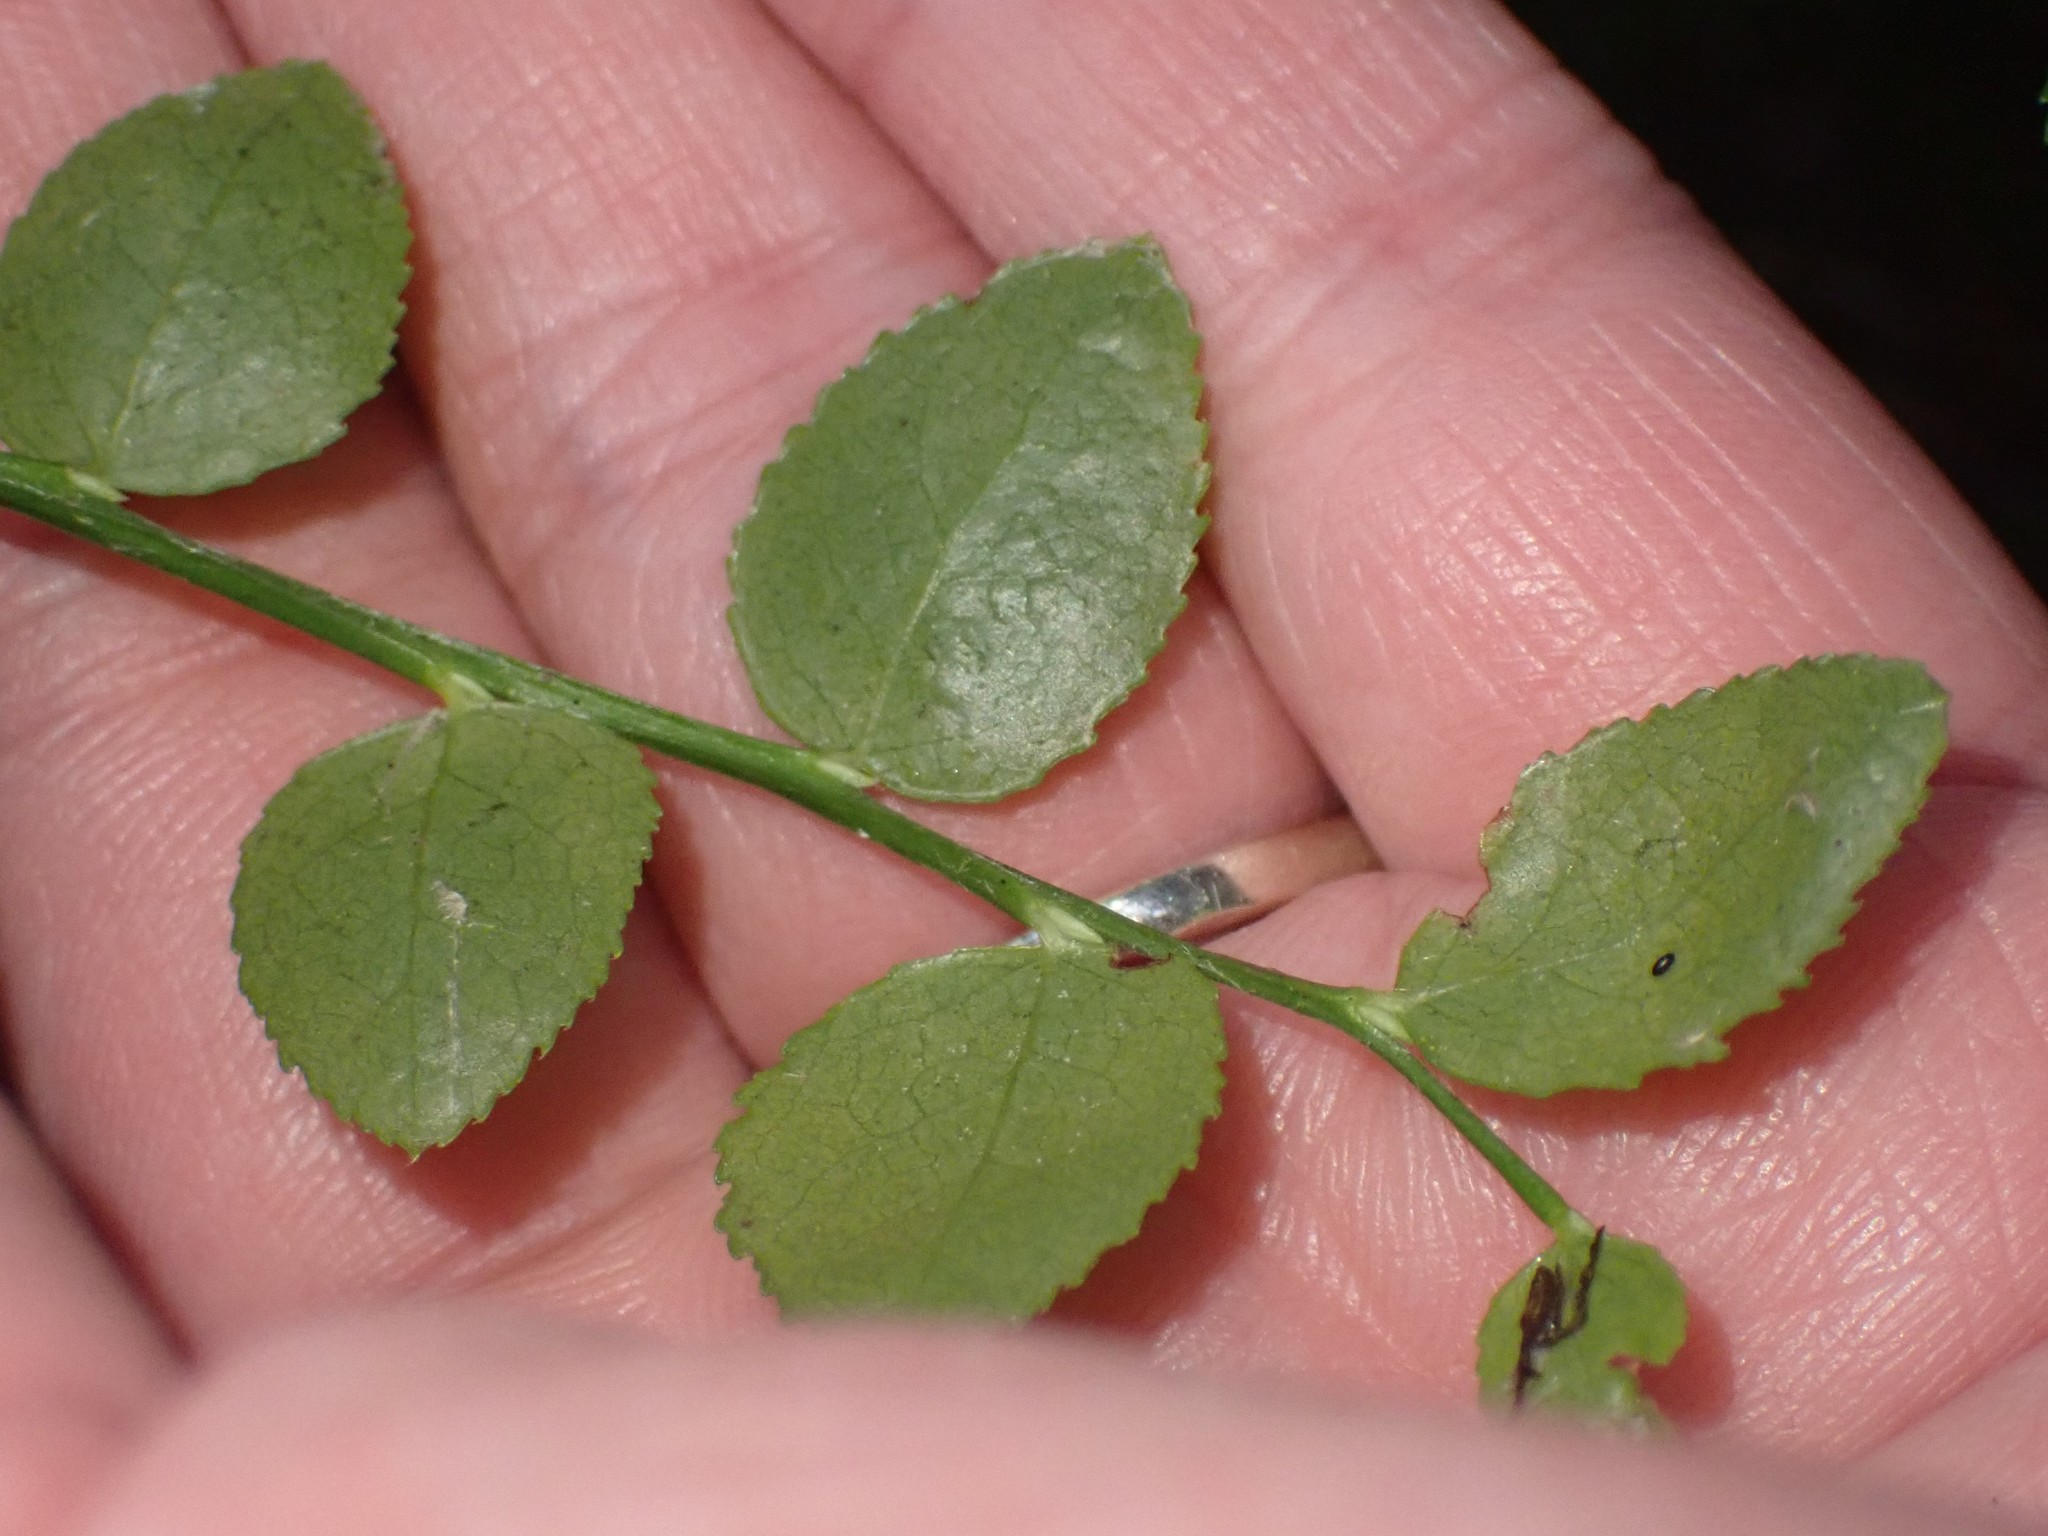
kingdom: Plantae
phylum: Tracheophyta
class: Magnoliopsida
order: Ericales
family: Ericaceae
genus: Vaccinium
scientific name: Vaccinium parvifolium
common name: Red-huckleberry
